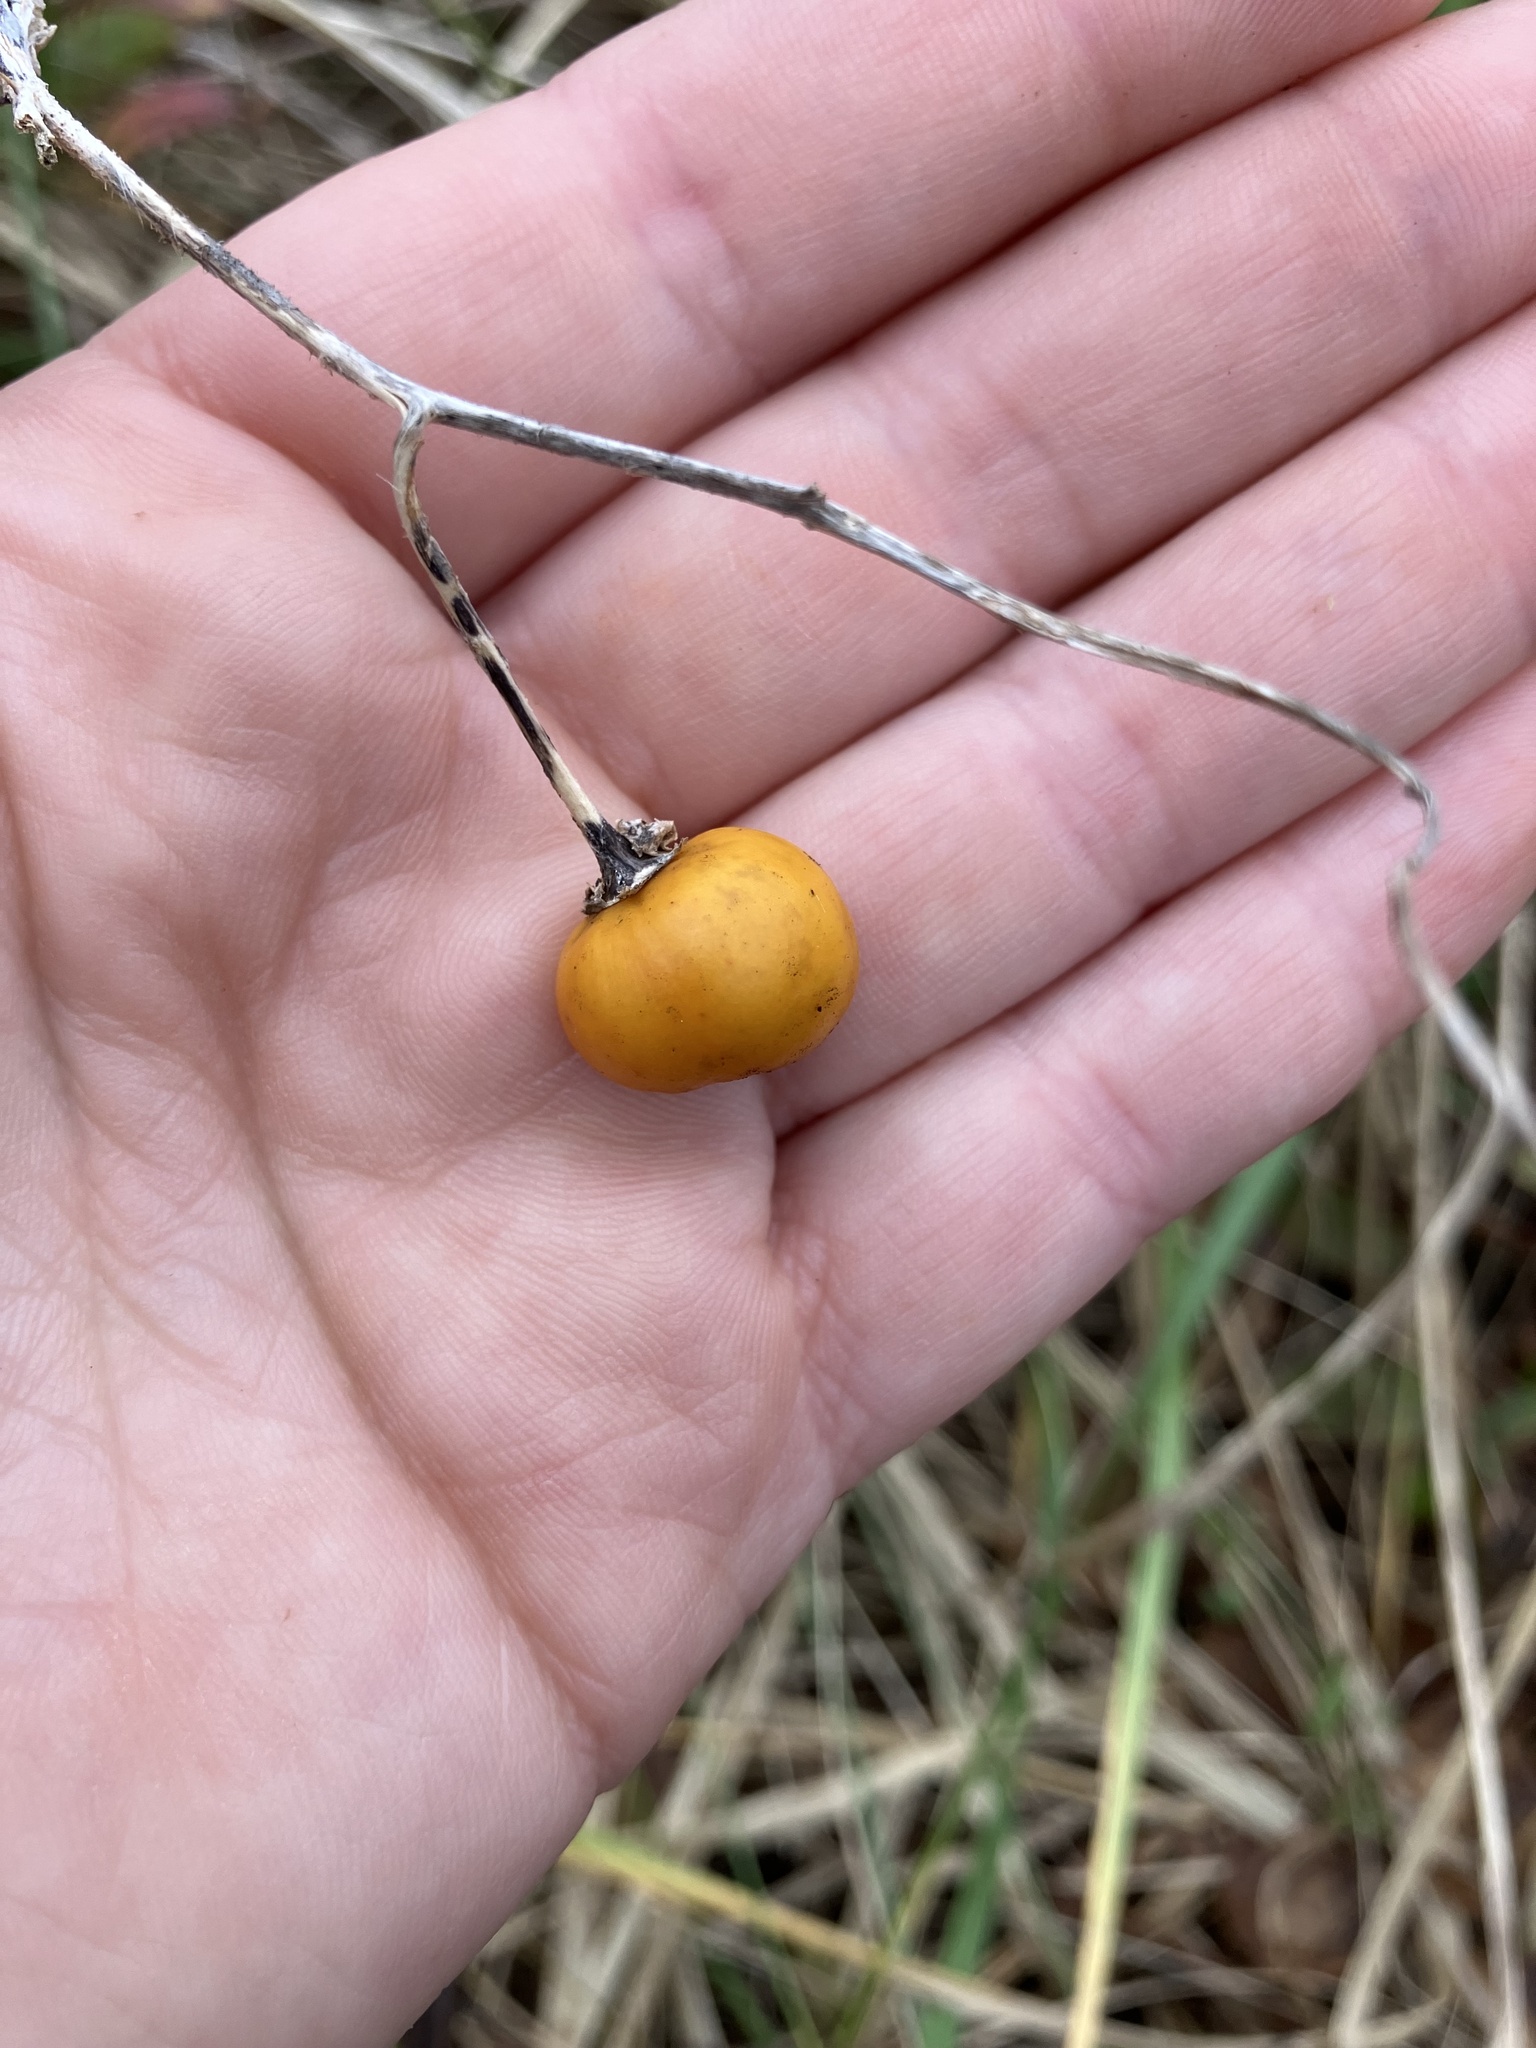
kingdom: Plantae
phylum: Tracheophyta
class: Magnoliopsida
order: Solanales
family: Solanaceae
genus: Solanum
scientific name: Solanum carolinense
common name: Horse-nettle
